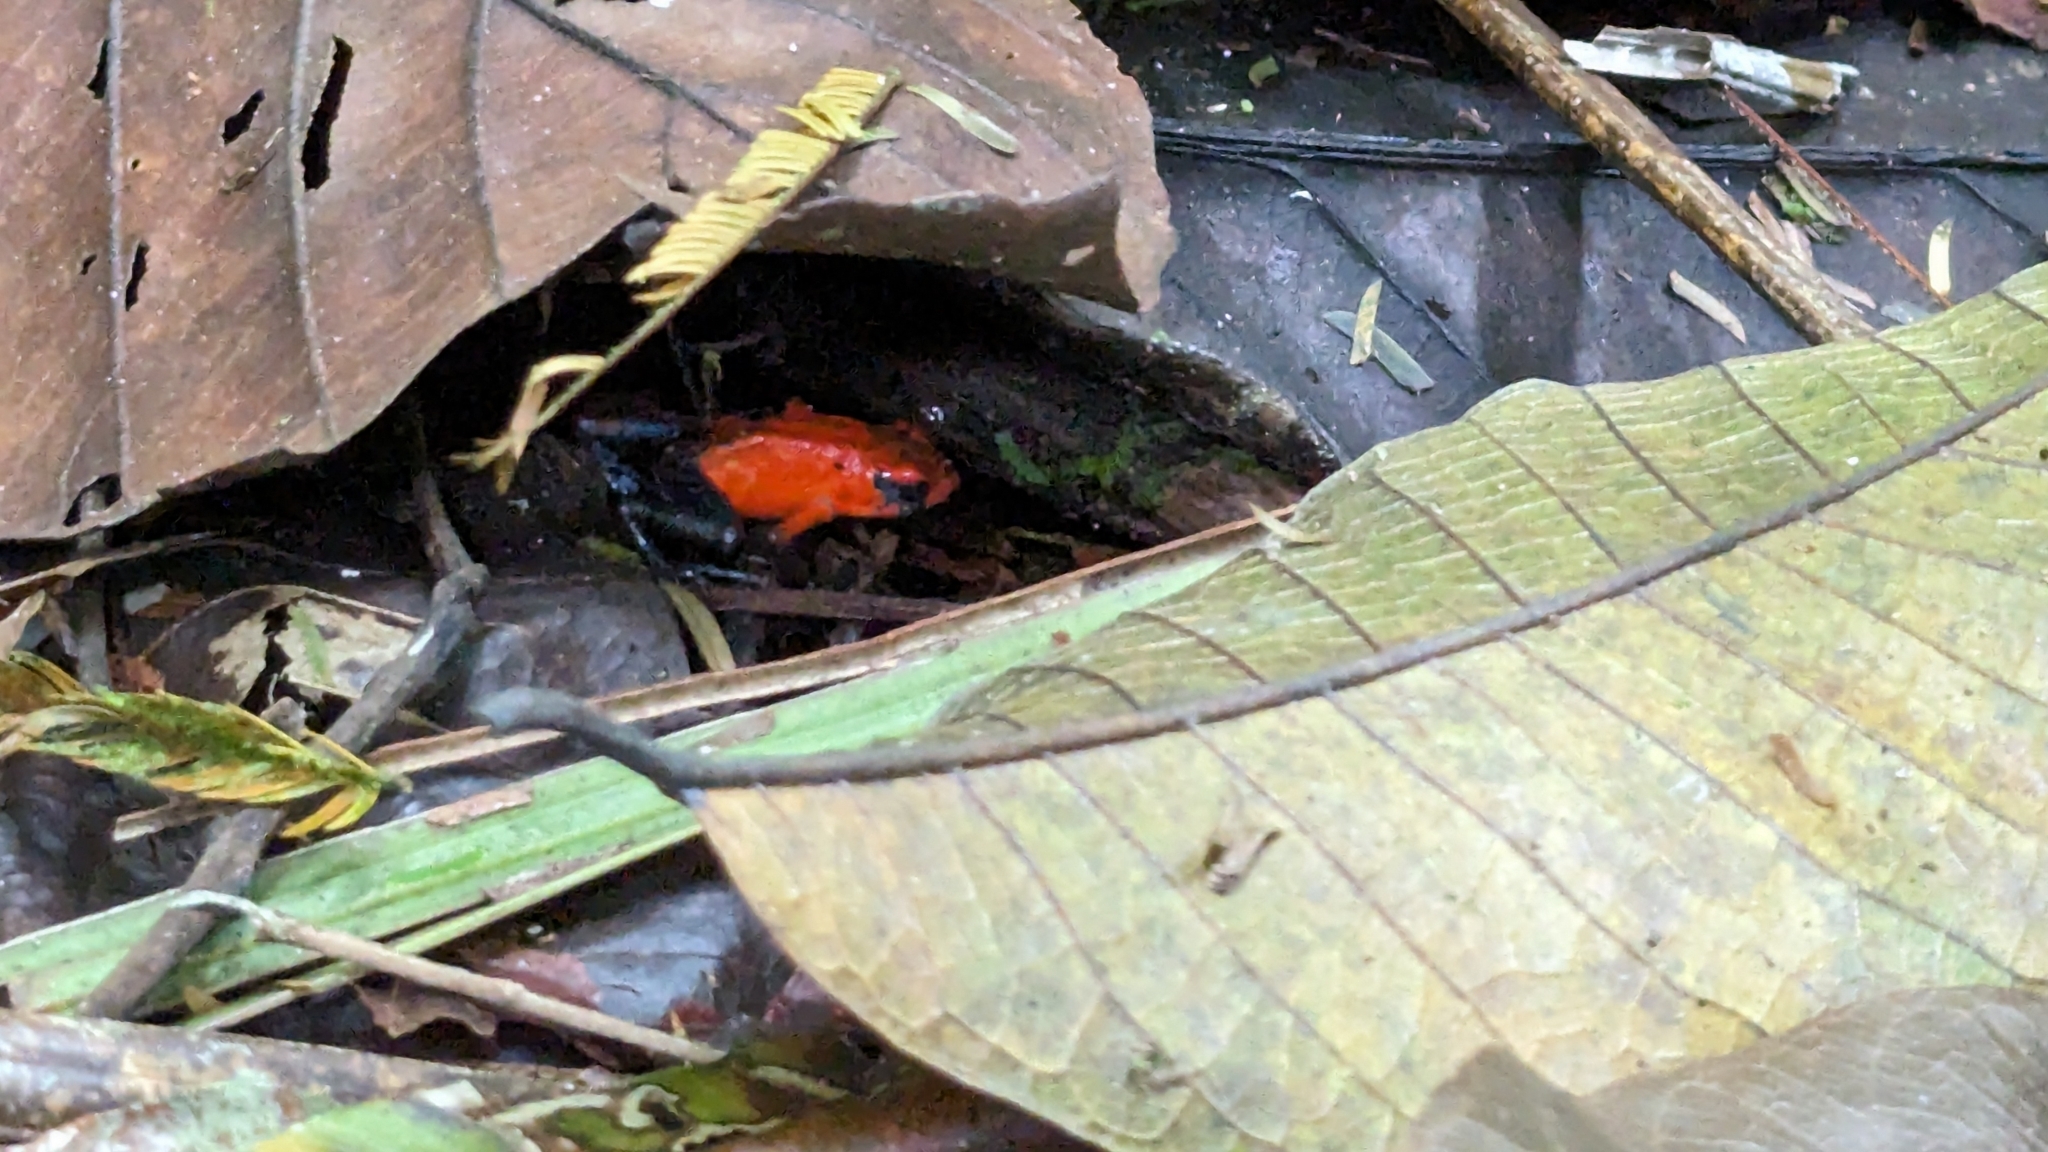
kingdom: Animalia
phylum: Chordata
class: Amphibia
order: Anura
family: Dendrobatidae
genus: Oophaga
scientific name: Oophaga pumilio
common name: Flaming poison frog
